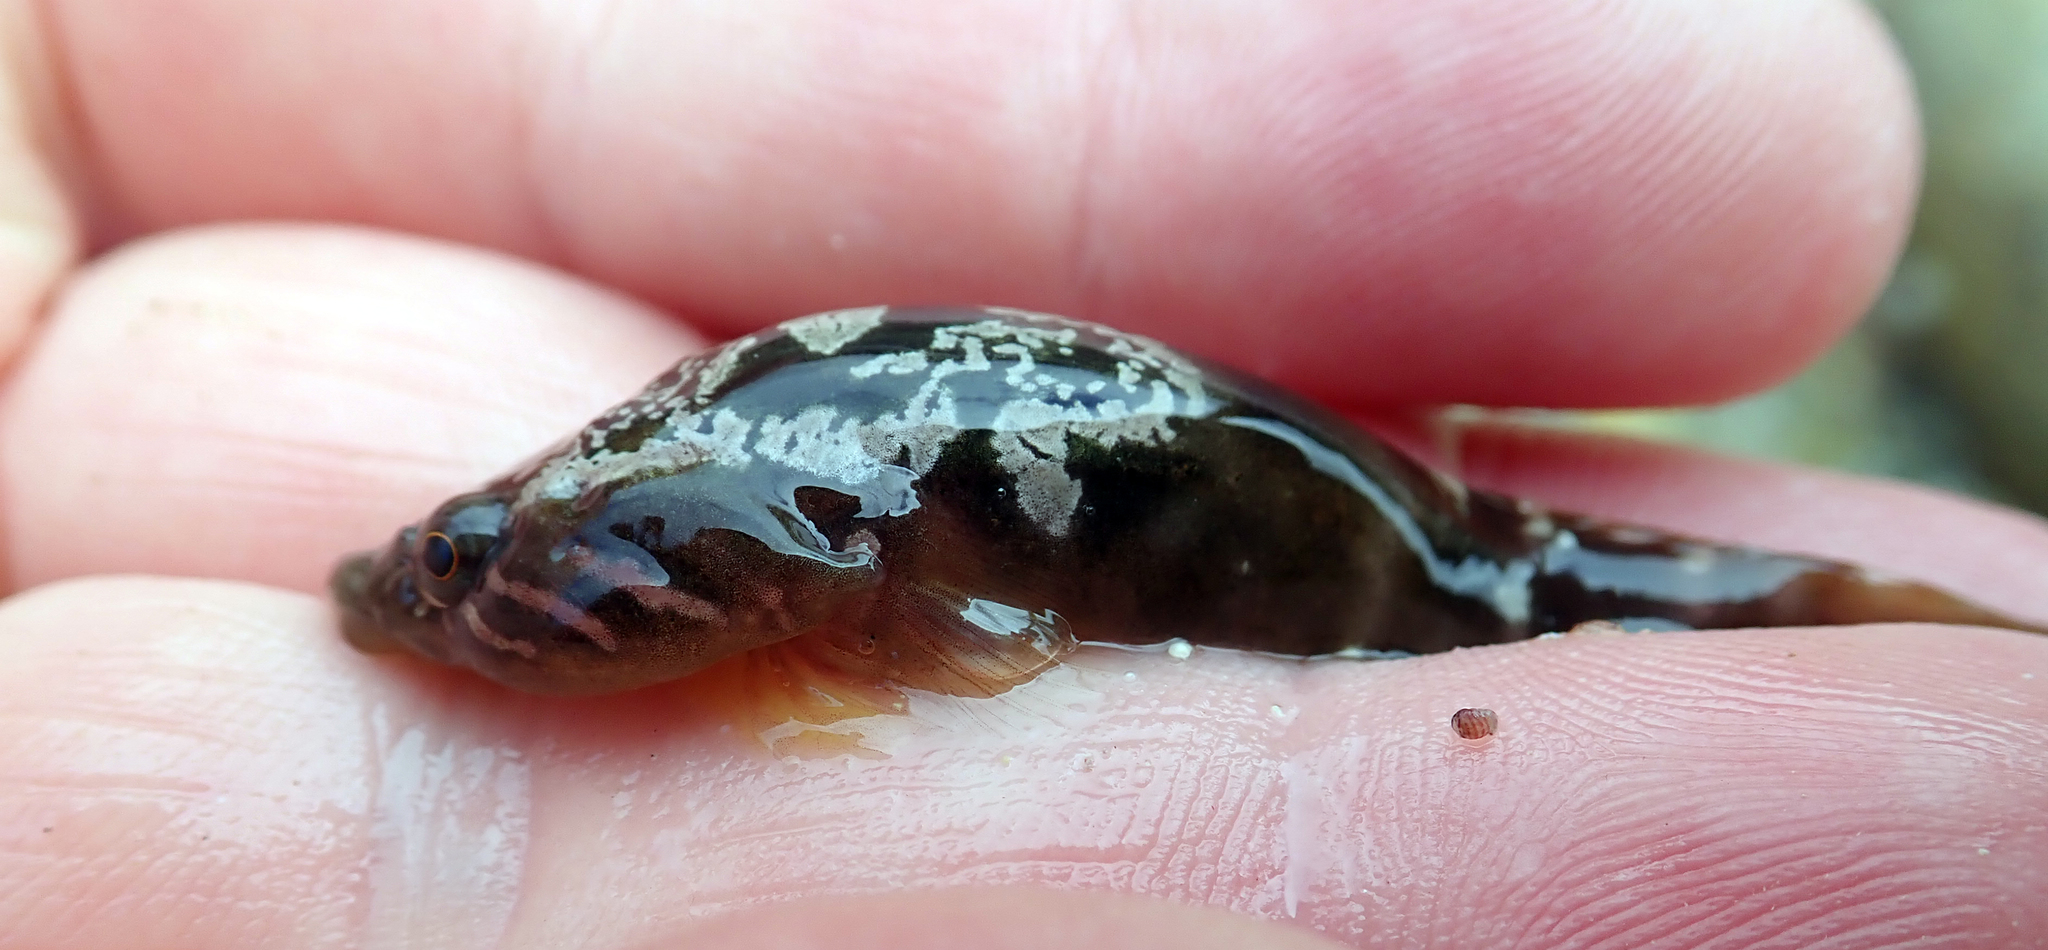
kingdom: Animalia
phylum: Chordata
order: Gobiesociformes
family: Gobiesocidae
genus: Trachelochismus
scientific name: Trachelochismus pinnulatus
